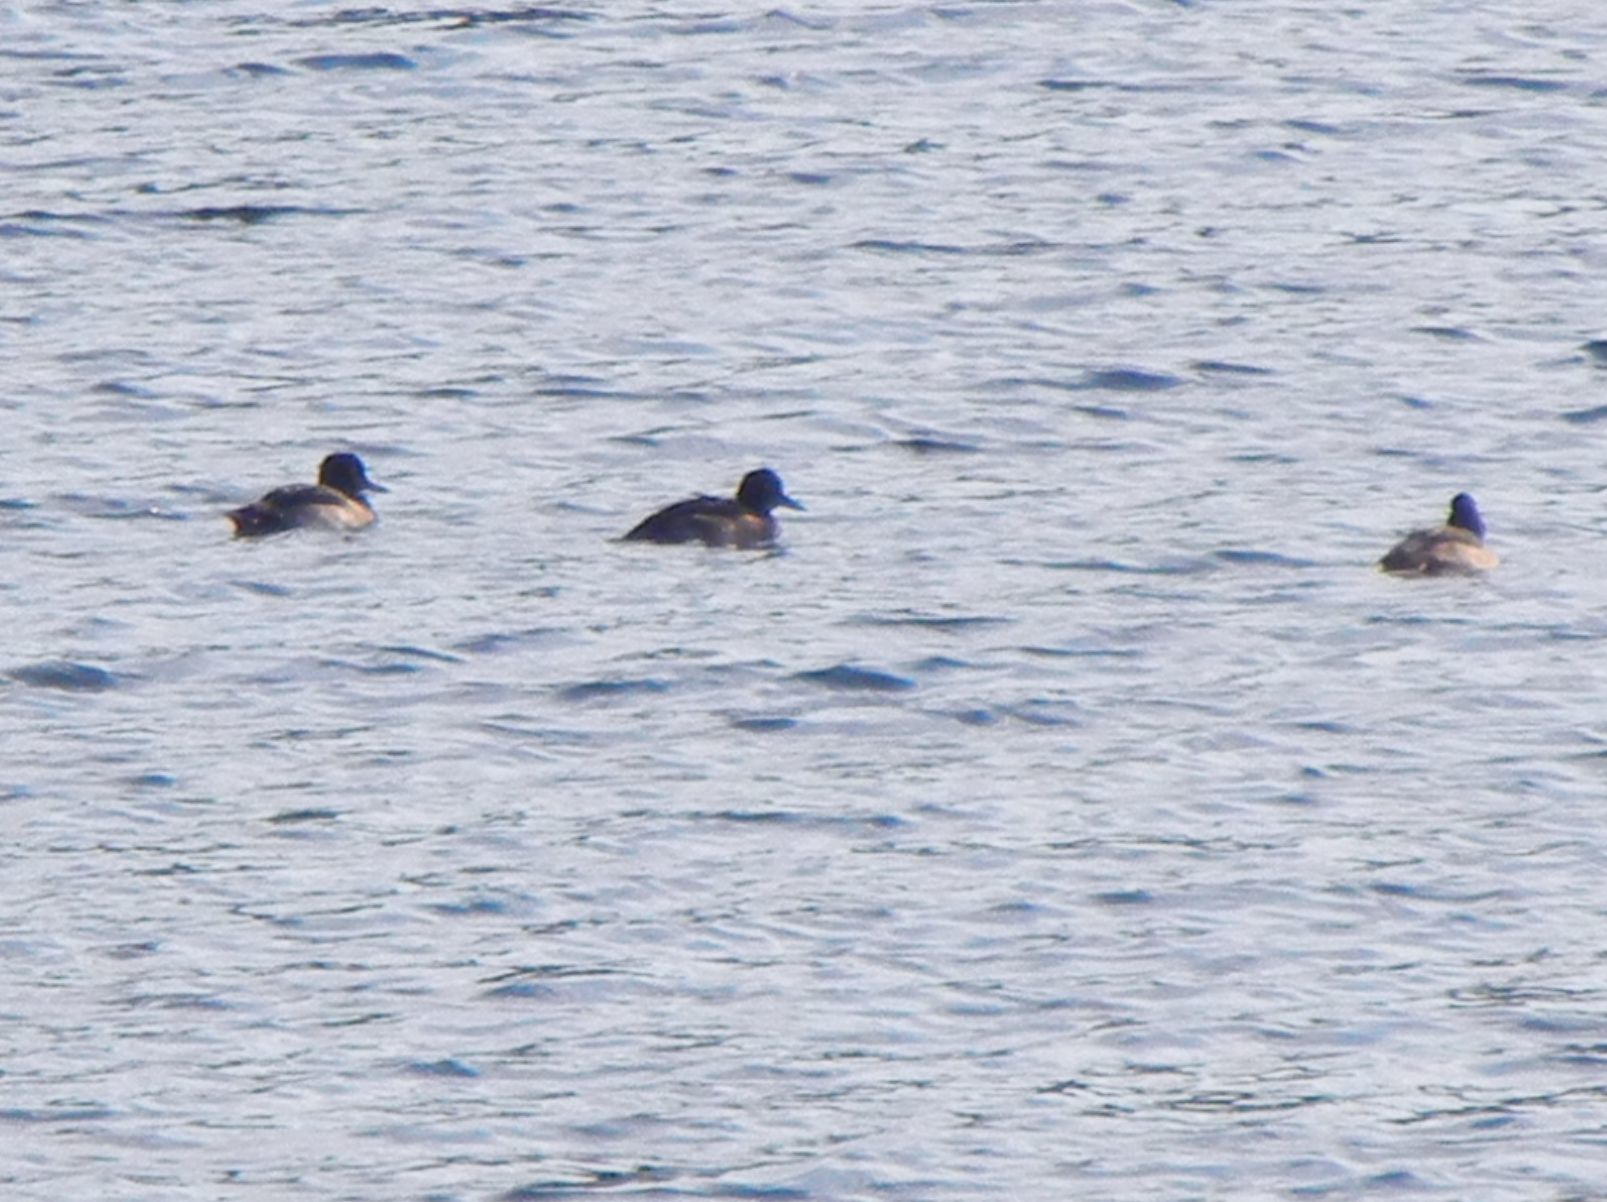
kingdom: Animalia
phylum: Chordata
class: Aves
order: Anseriformes
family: Anatidae
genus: Aythya
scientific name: Aythya fuligula
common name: Tufted duck
